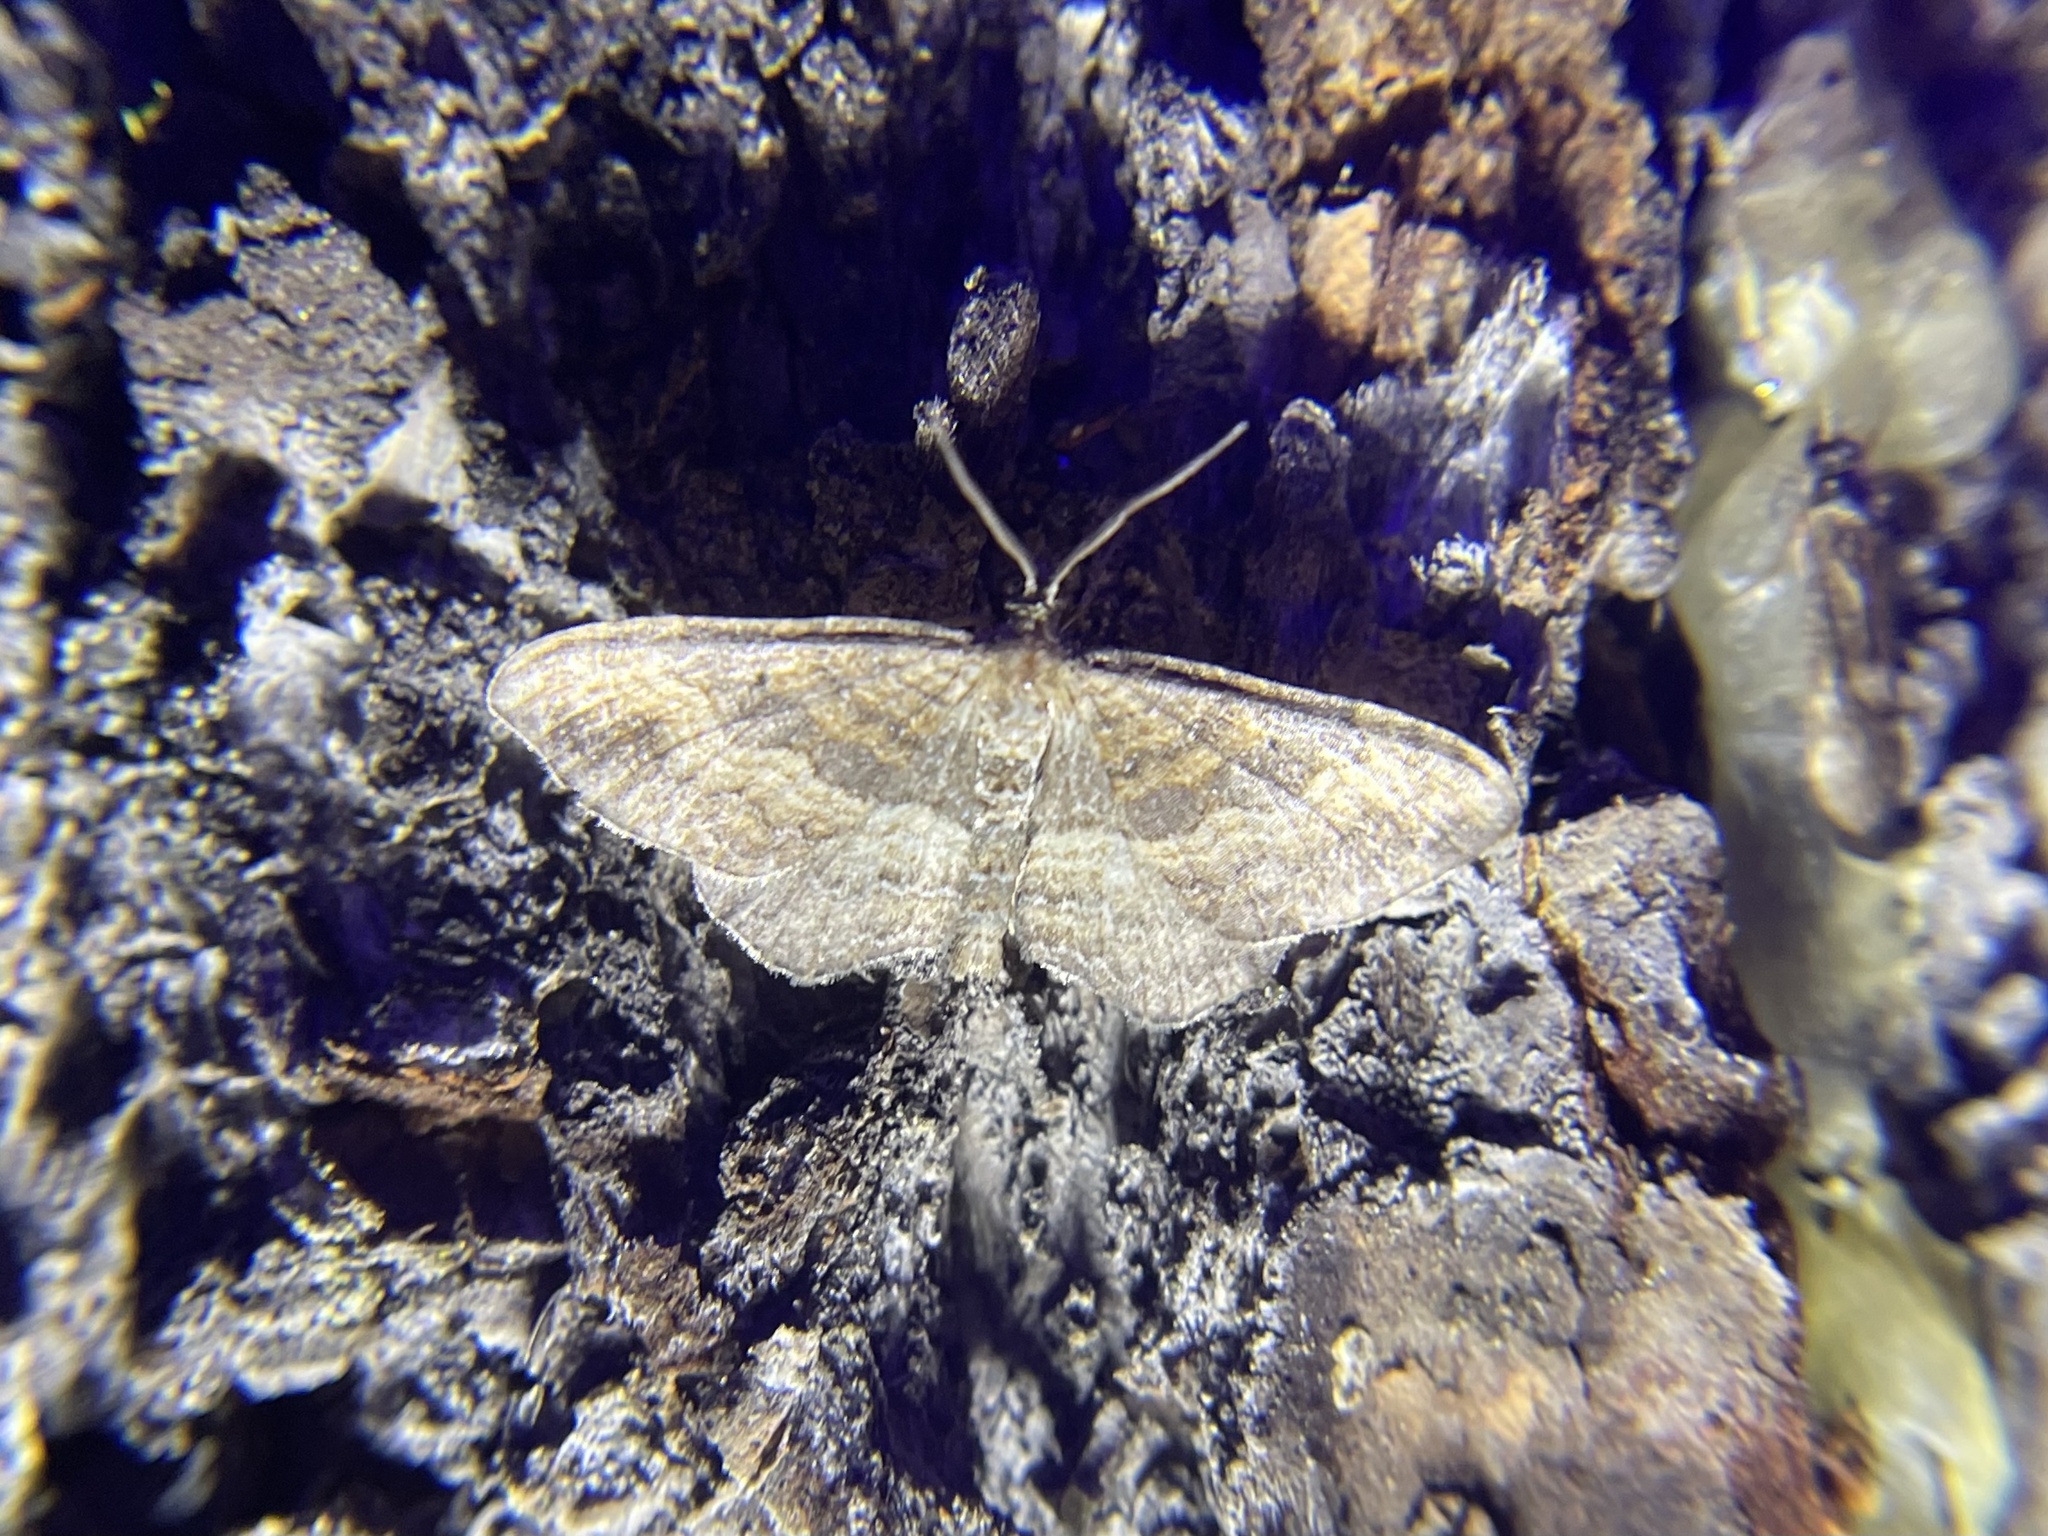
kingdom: Animalia
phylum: Arthropoda
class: Insecta
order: Lepidoptera
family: Geometridae
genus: Orthonama
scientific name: Orthonama obstipata
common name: The gem
